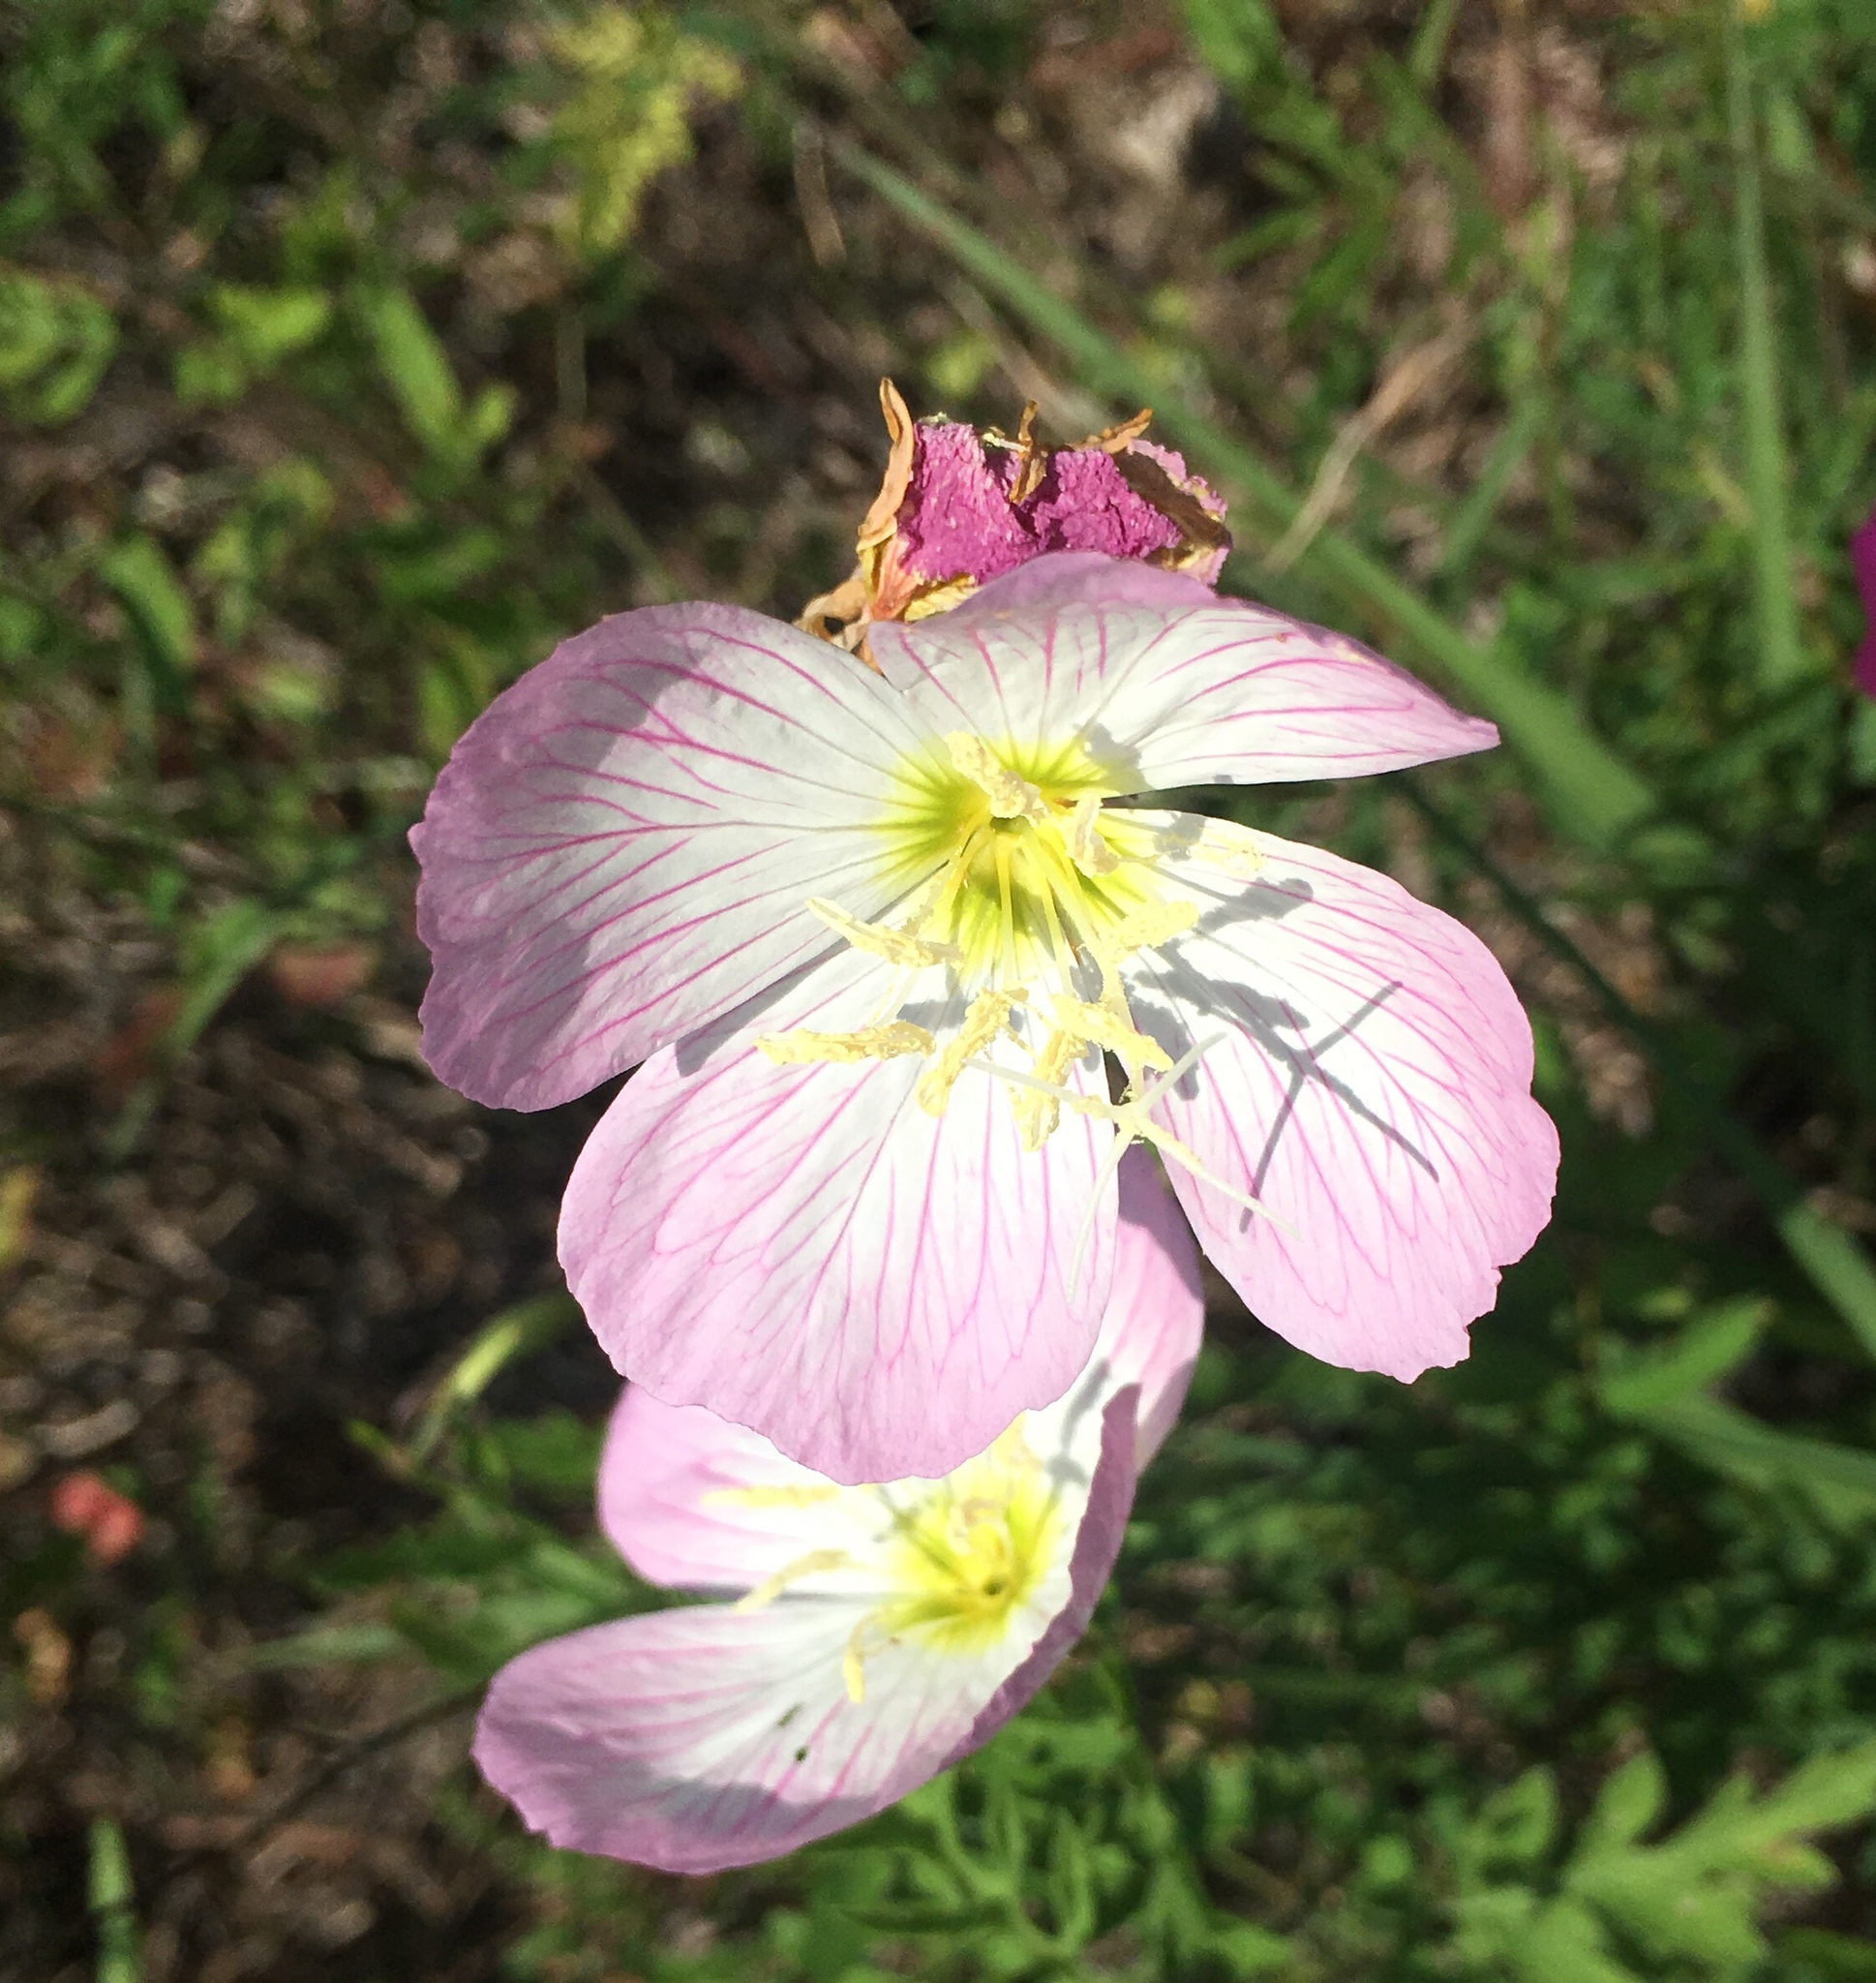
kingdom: Plantae
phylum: Tracheophyta
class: Magnoliopsida
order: Myrtales
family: Onagraceae
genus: Oenothera
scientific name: Oenothera speciosa
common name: White evening-primrose
